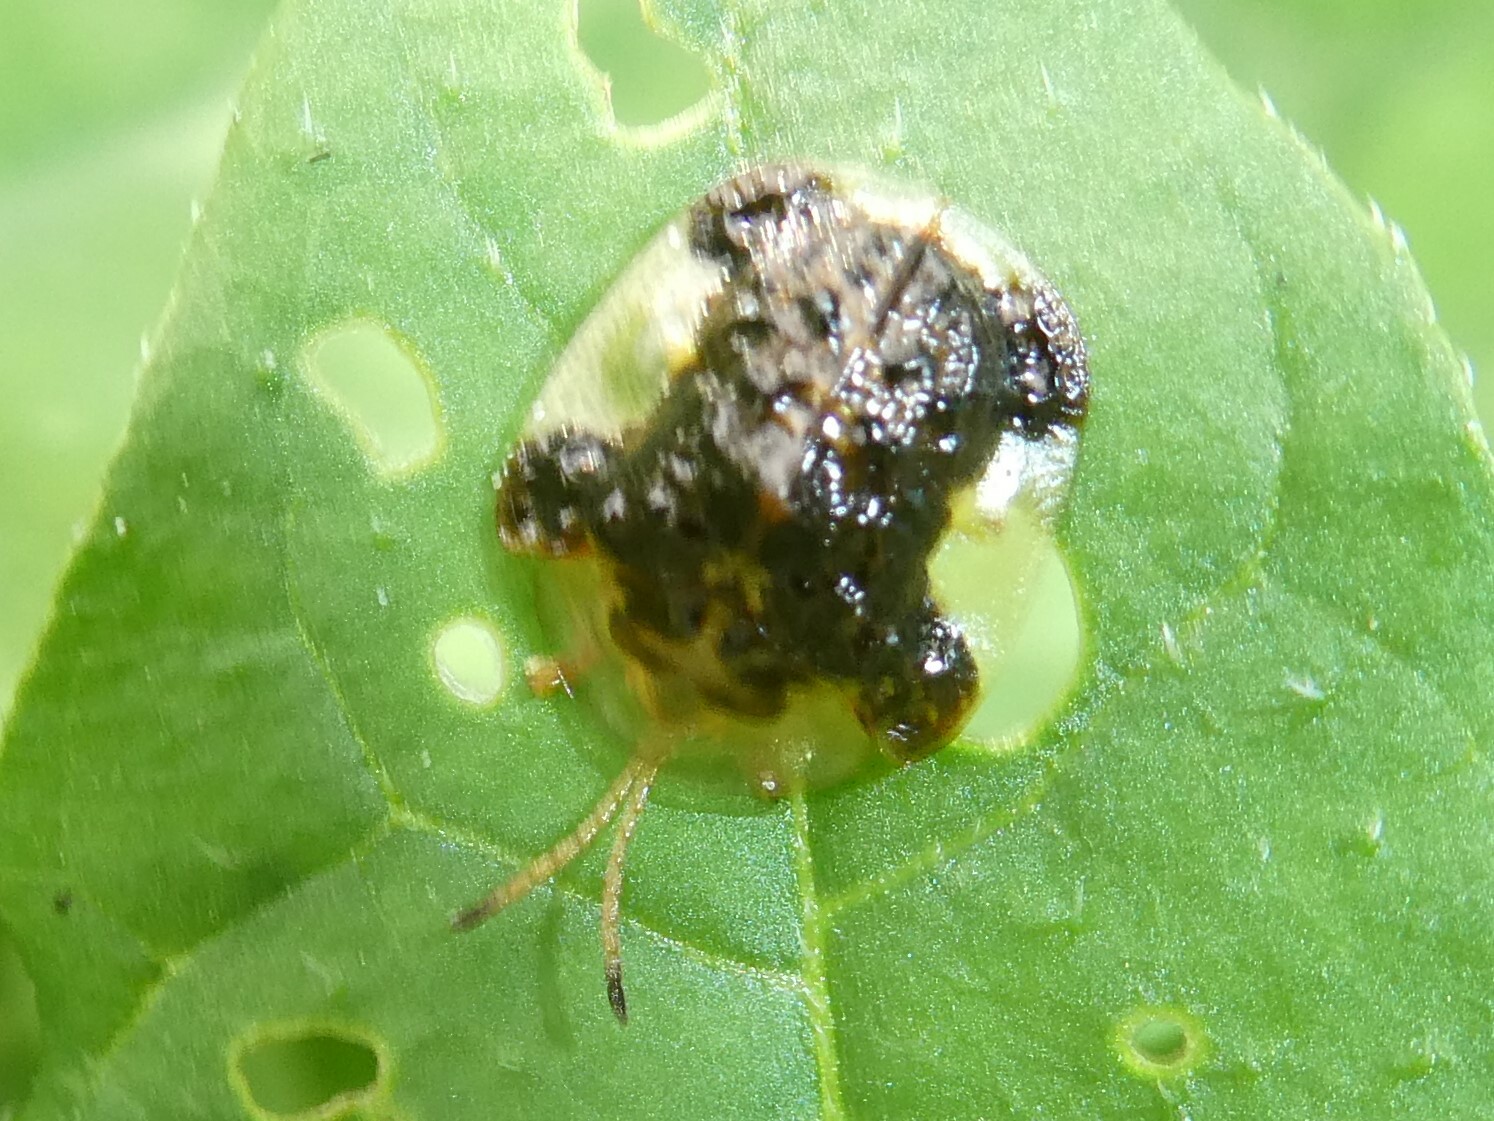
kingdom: Animalia
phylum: Arthropoda
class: Insecta
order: Coleoptera
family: Chrysomelidae
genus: Helocassis
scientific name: Helocassis clavata
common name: Clavate tortoise beetle
